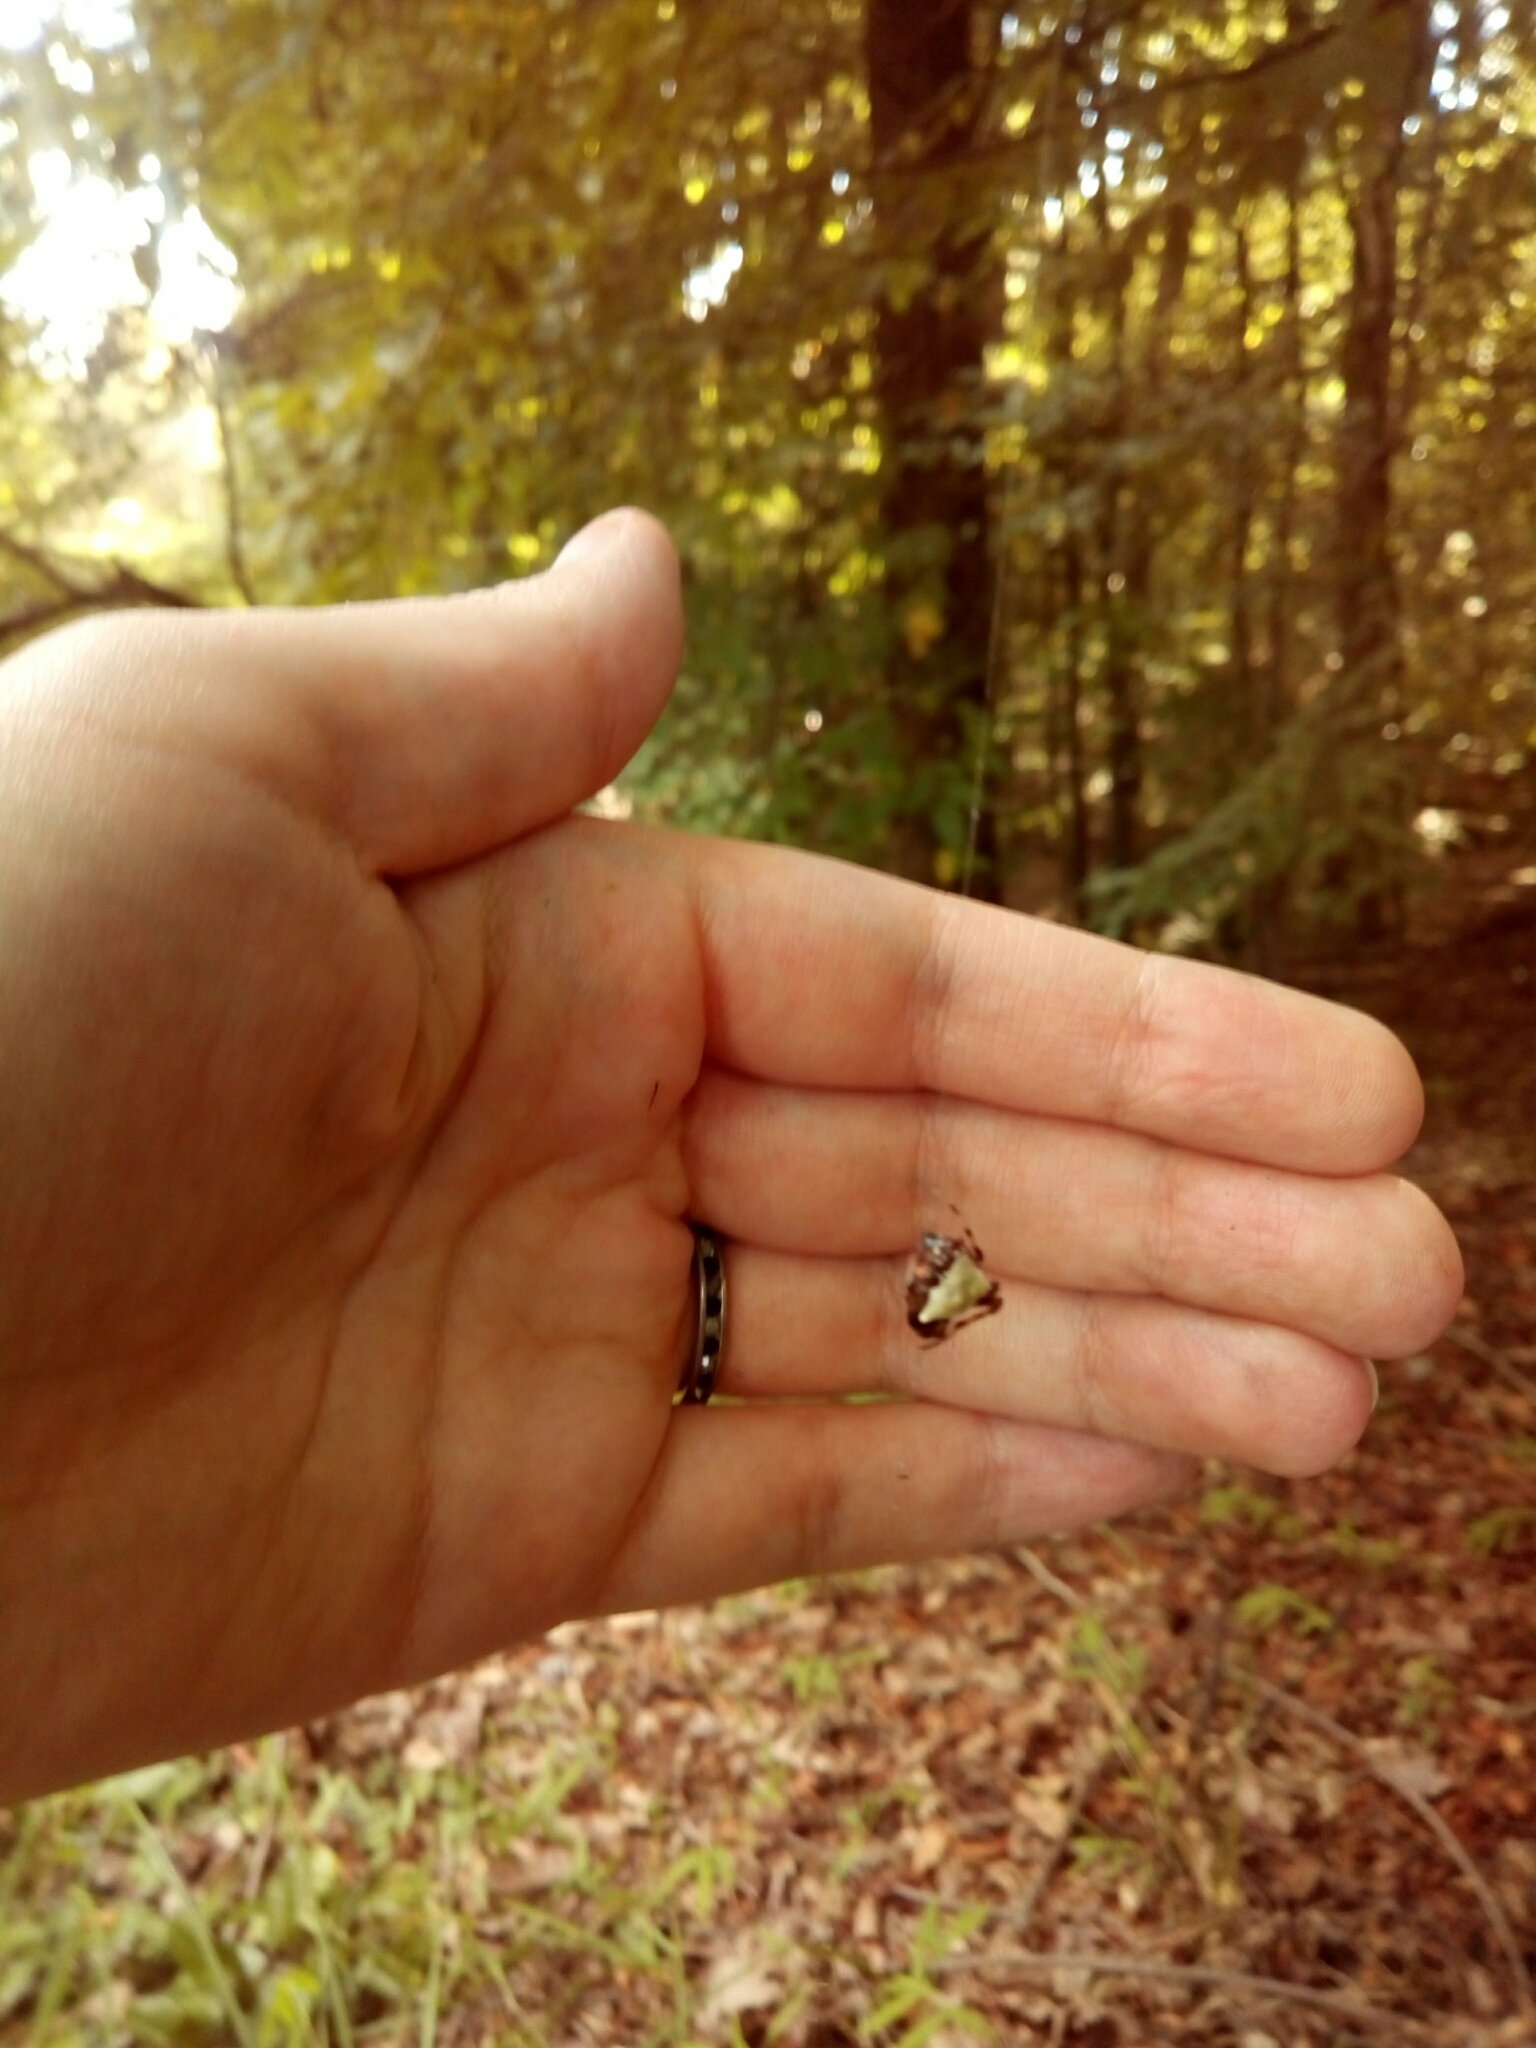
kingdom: Animalia
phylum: Arthropoda
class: Arachnida
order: Araneae
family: Araneidae
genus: Verrucosa
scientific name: Verrucosa arenata
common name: Orb weavers
